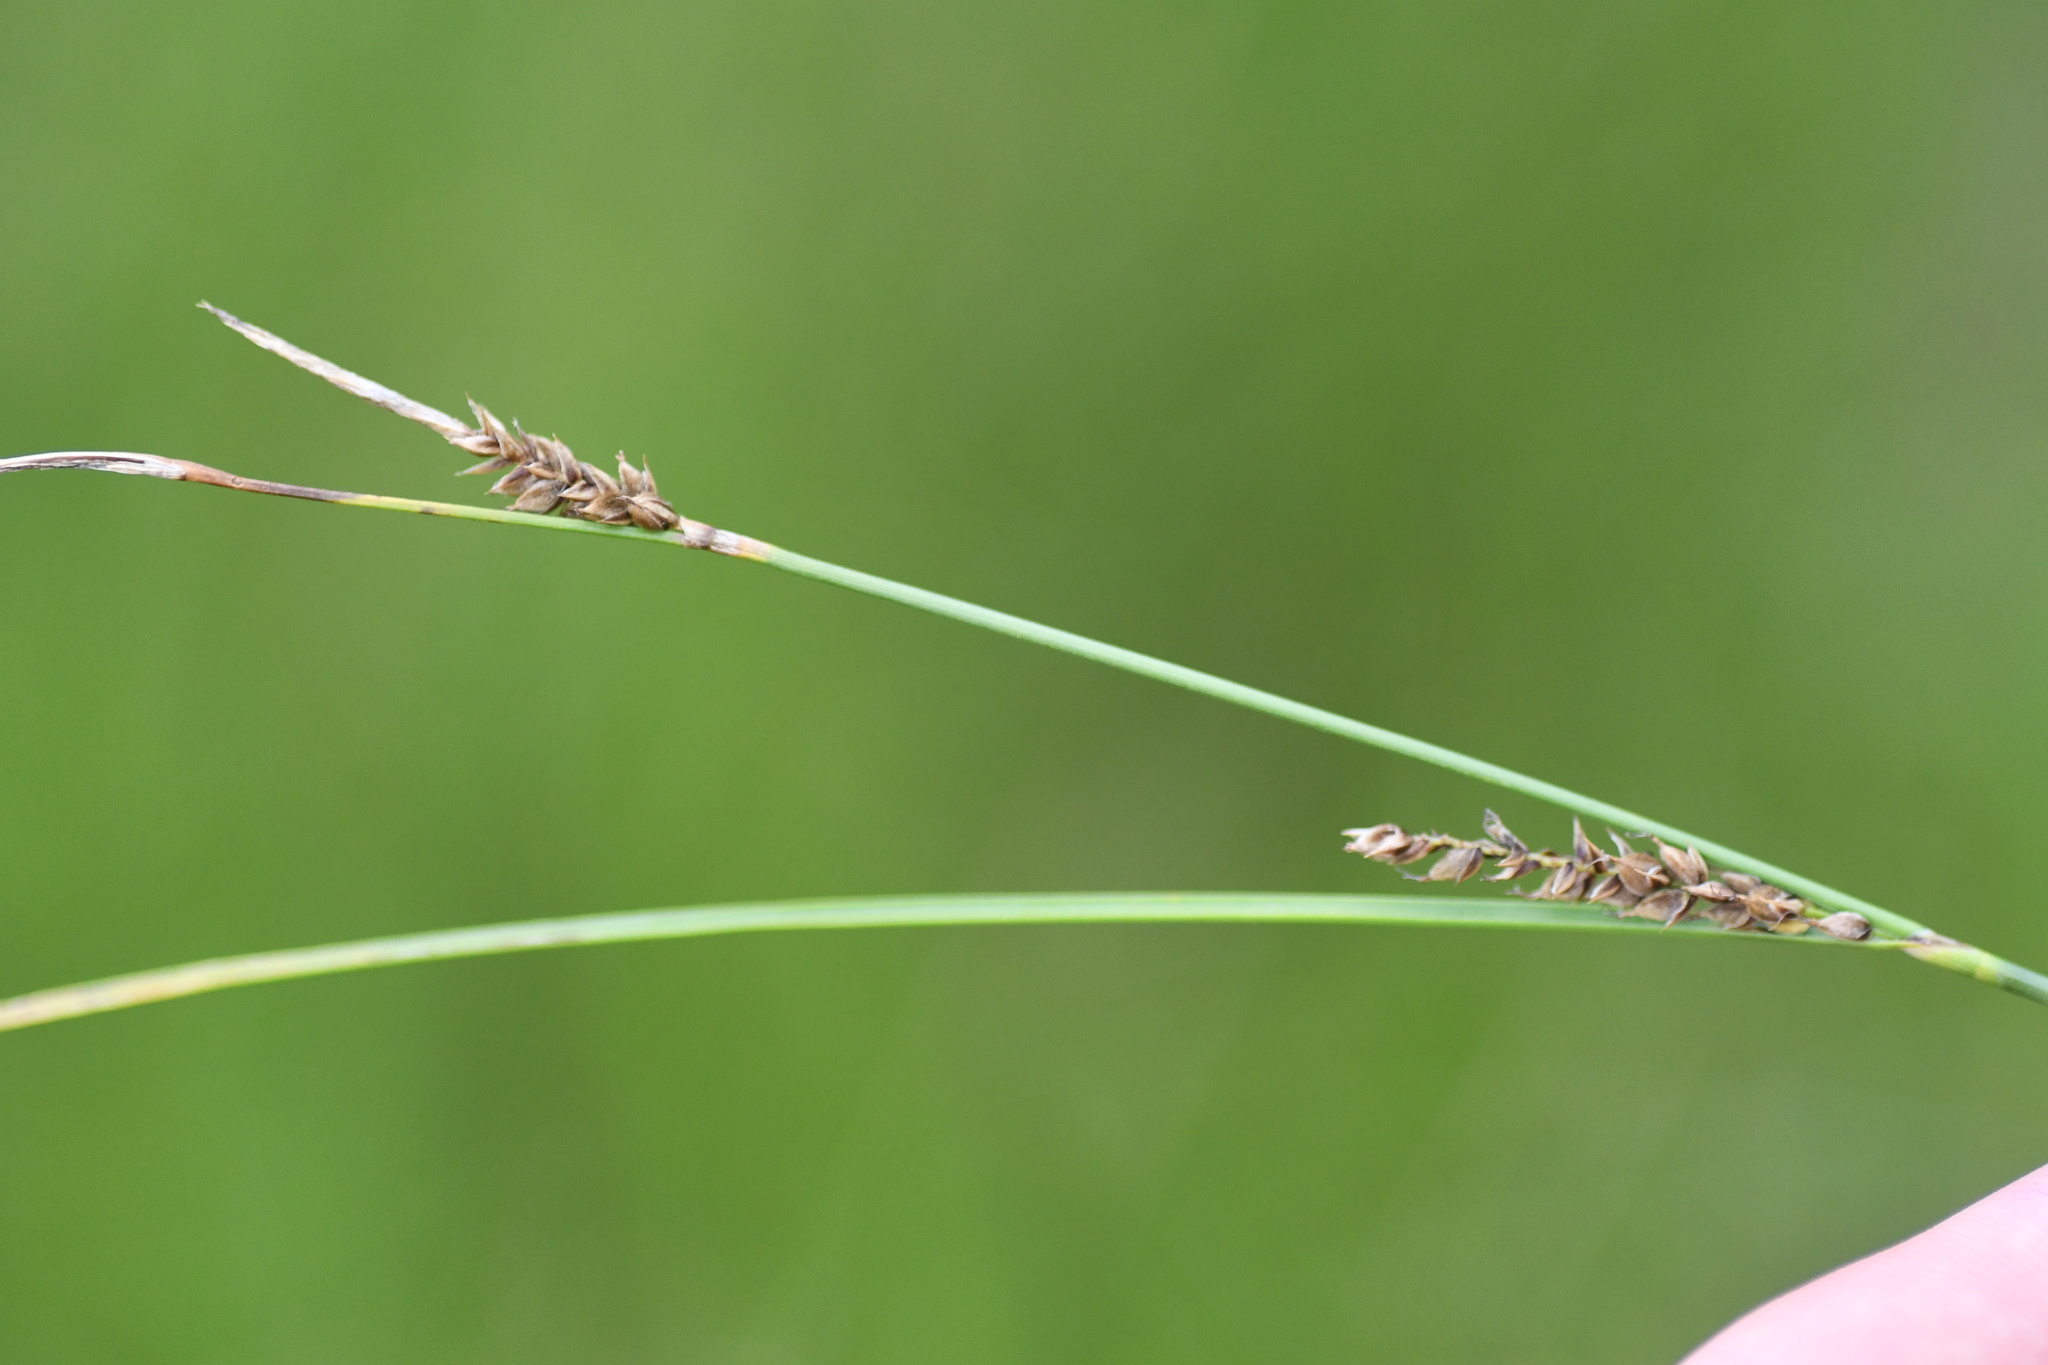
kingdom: Plantae
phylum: Tracheophyta
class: Liliopsida
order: Poales
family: Cyperaceae
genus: Carex
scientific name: Carex lasiocarpa
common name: Slender sedge
